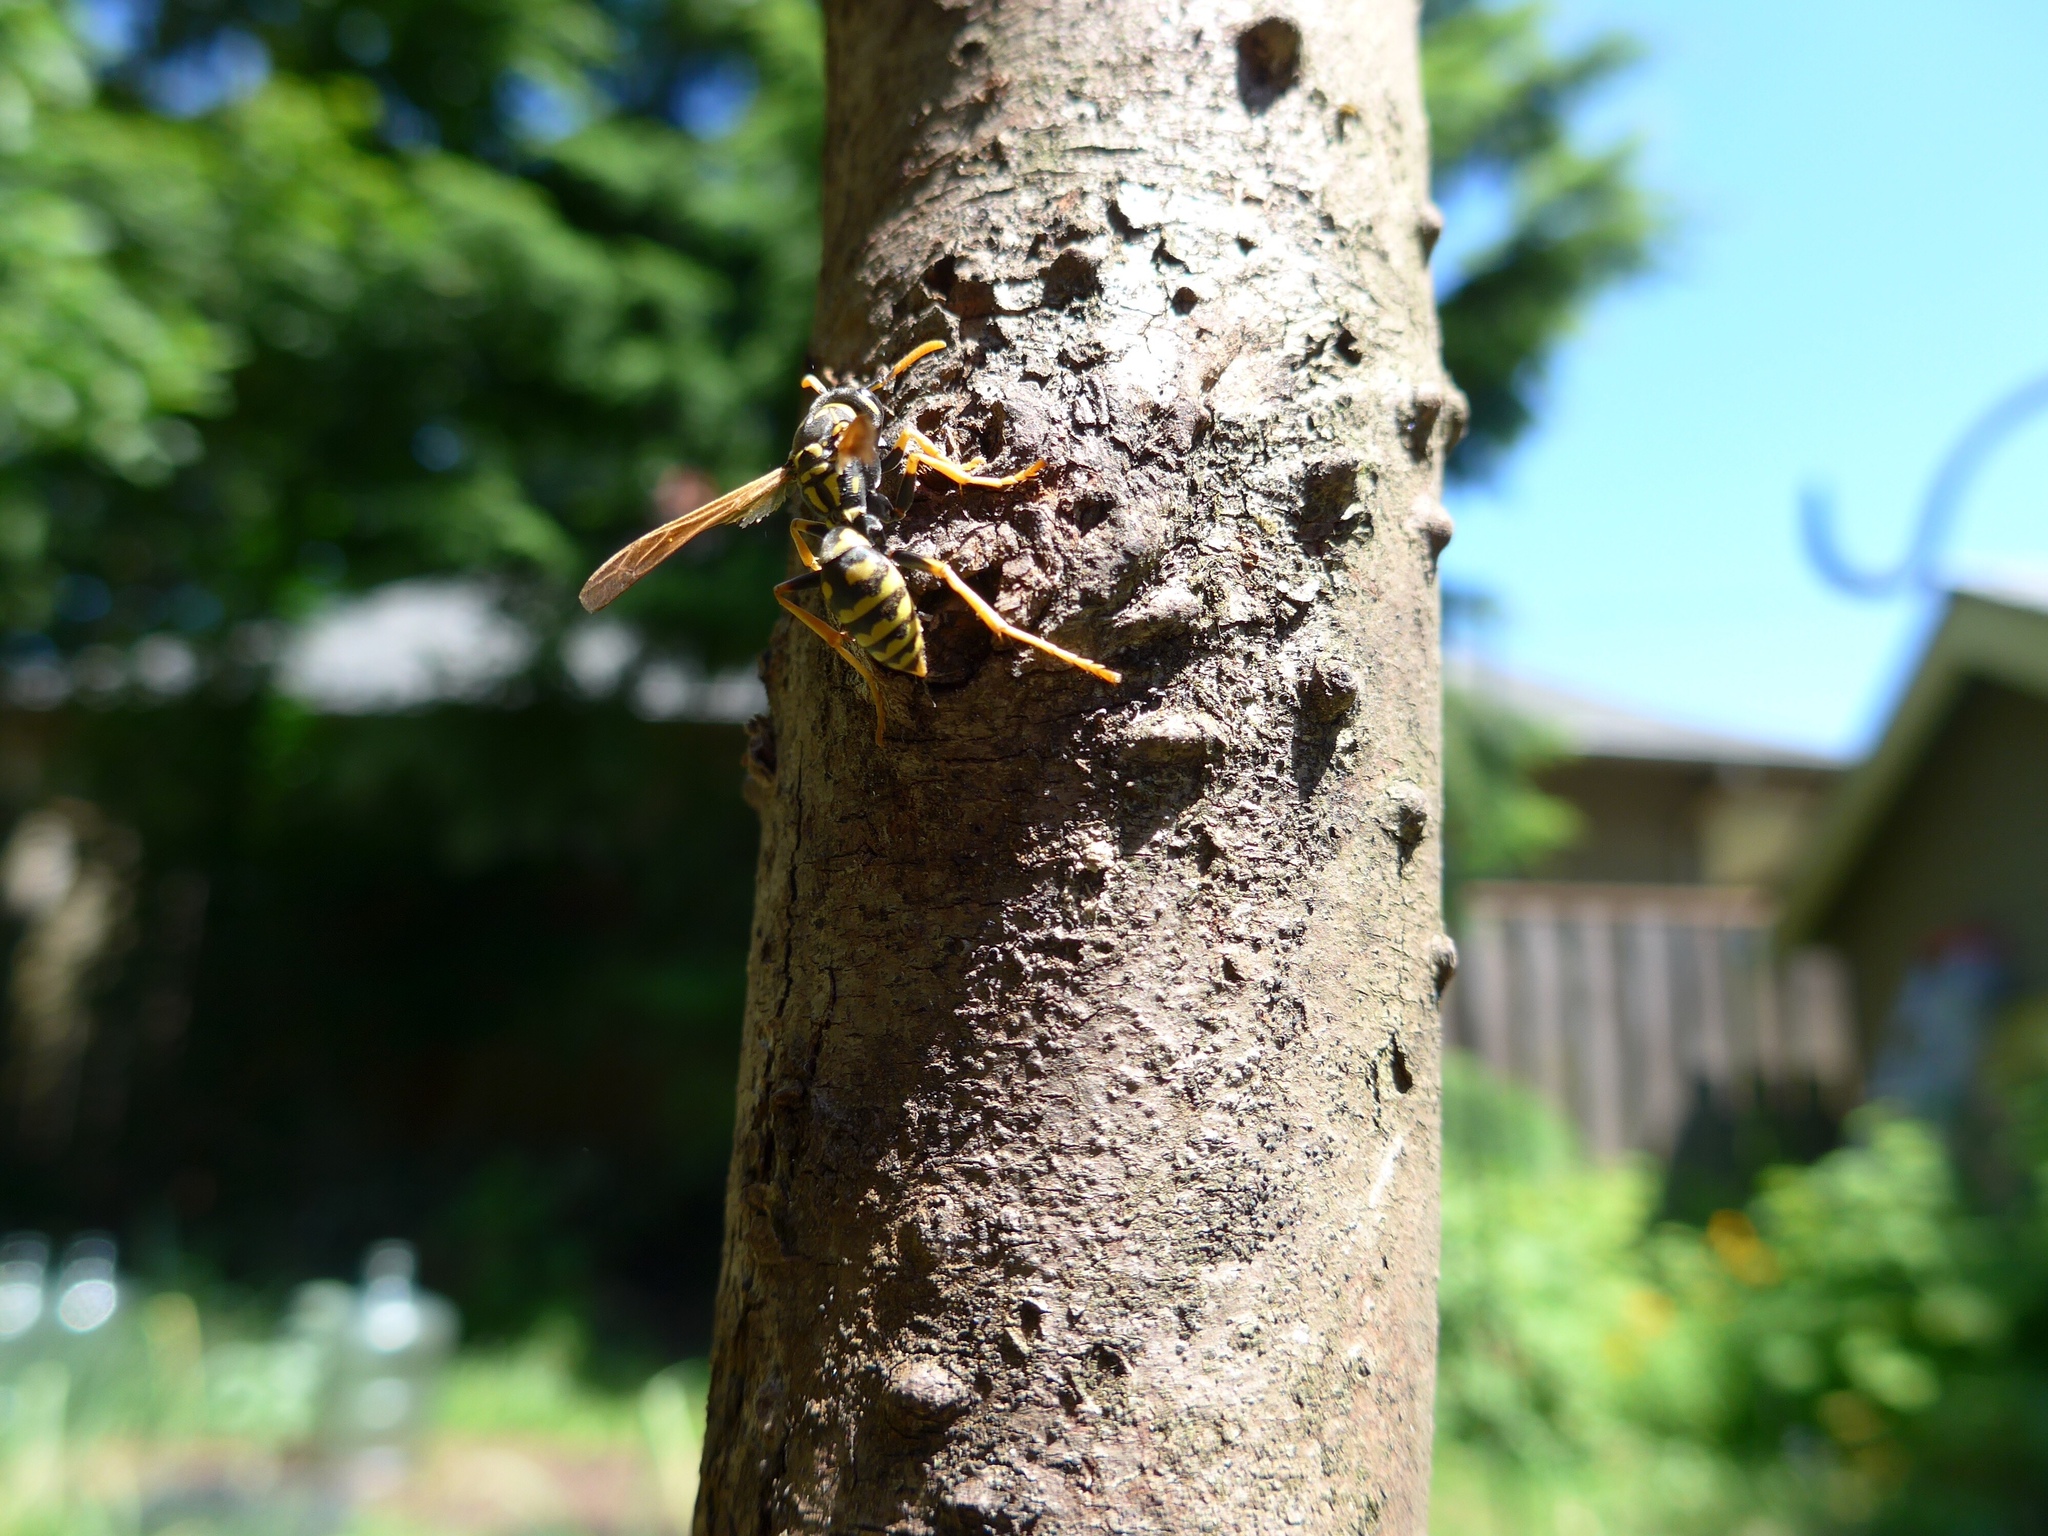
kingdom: Animalia
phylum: Arthropoda
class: Insecta
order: Hymenoptera
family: Eumenidae
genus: Polistes
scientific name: Polistes dominula
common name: Paper wasp
